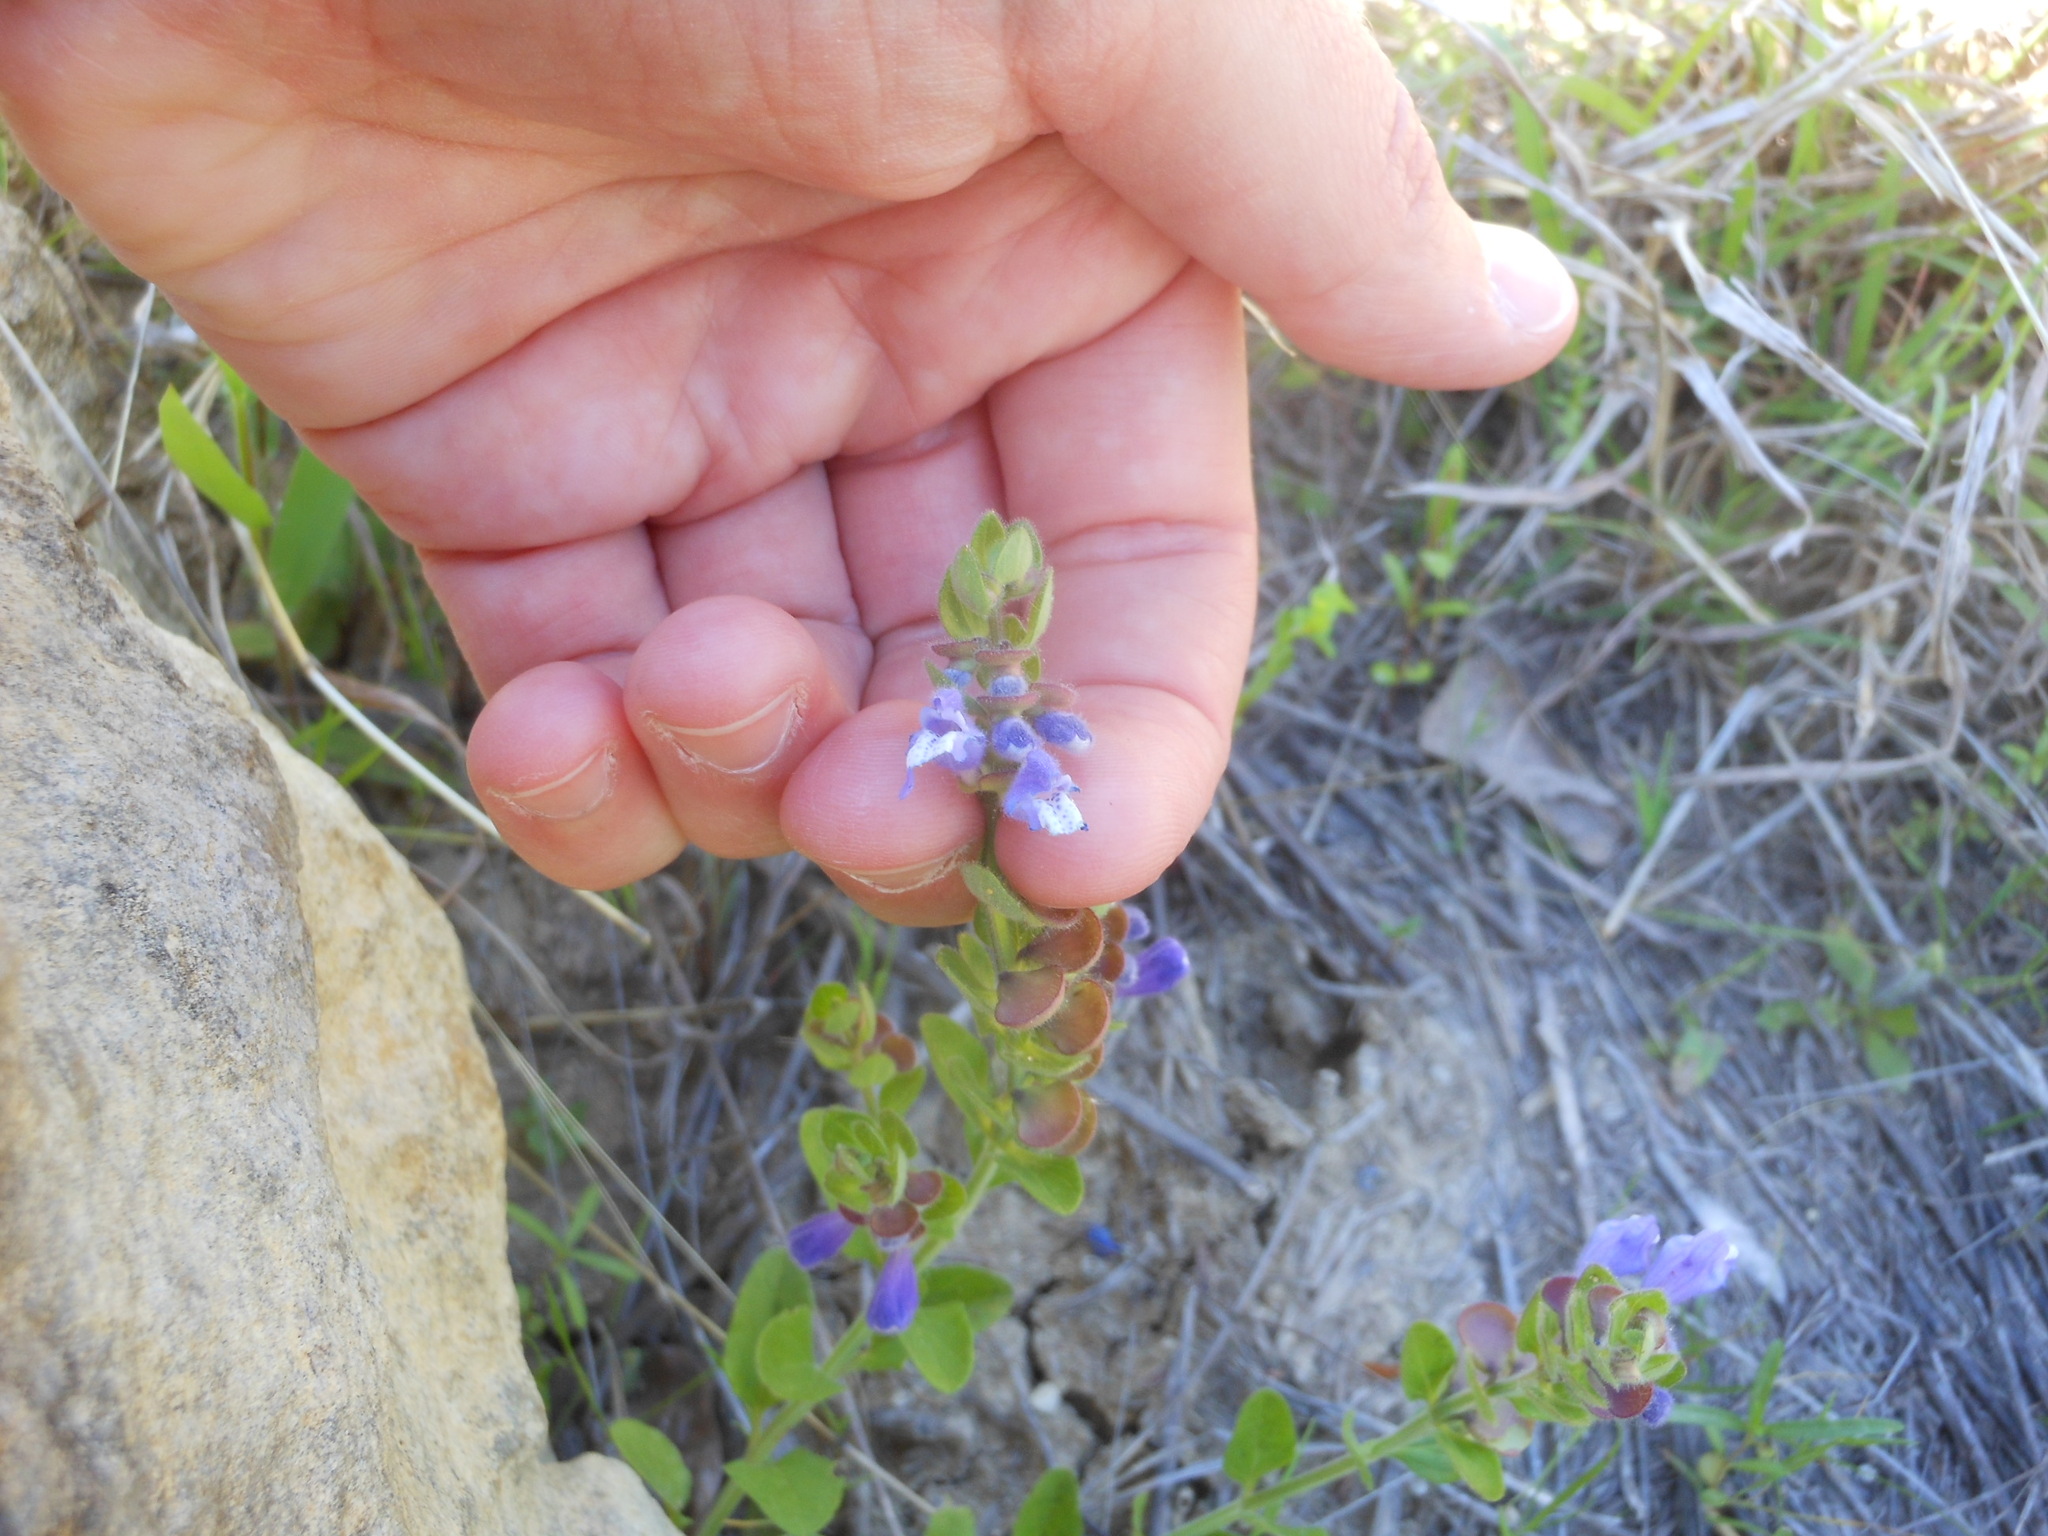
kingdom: Plantae
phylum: Tracheophyta
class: Magnoliopsida
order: Lamiales
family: Lamiaceae
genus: Scutellaria
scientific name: Scutellaria drummondii
